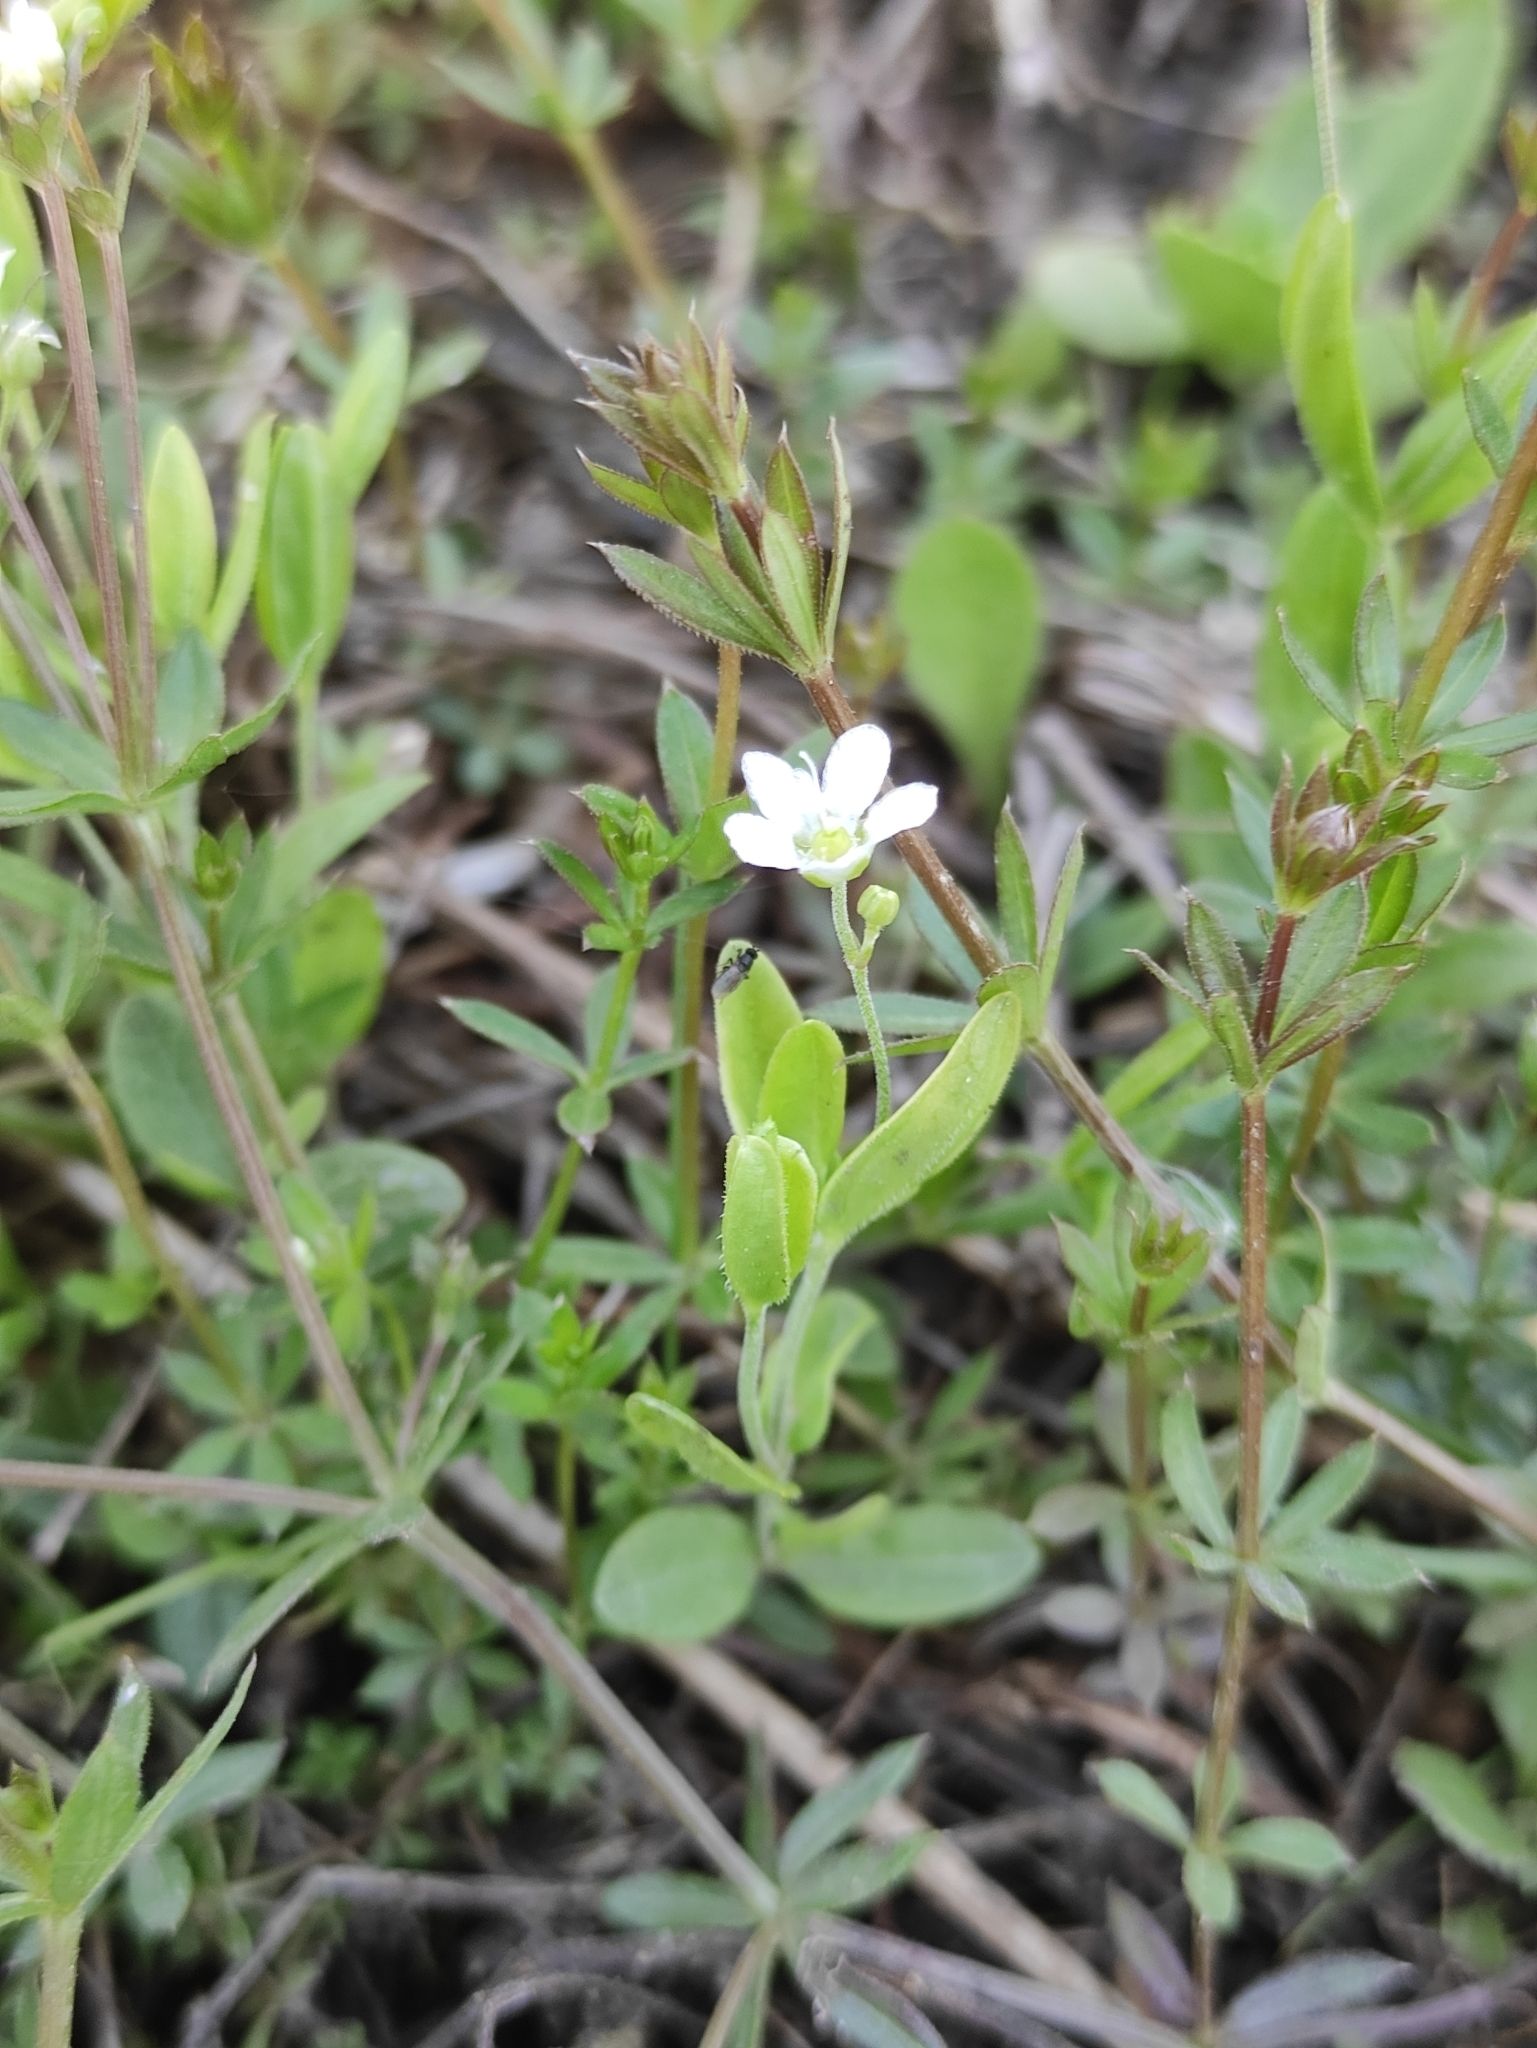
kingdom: Plantae
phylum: Tracheophyta
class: Magnoliopsida
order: Caryophyllales
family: Caryophyllaceae
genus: Moehringia
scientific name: Moehringia lateriflora
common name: Blunt-leaved sandwort
